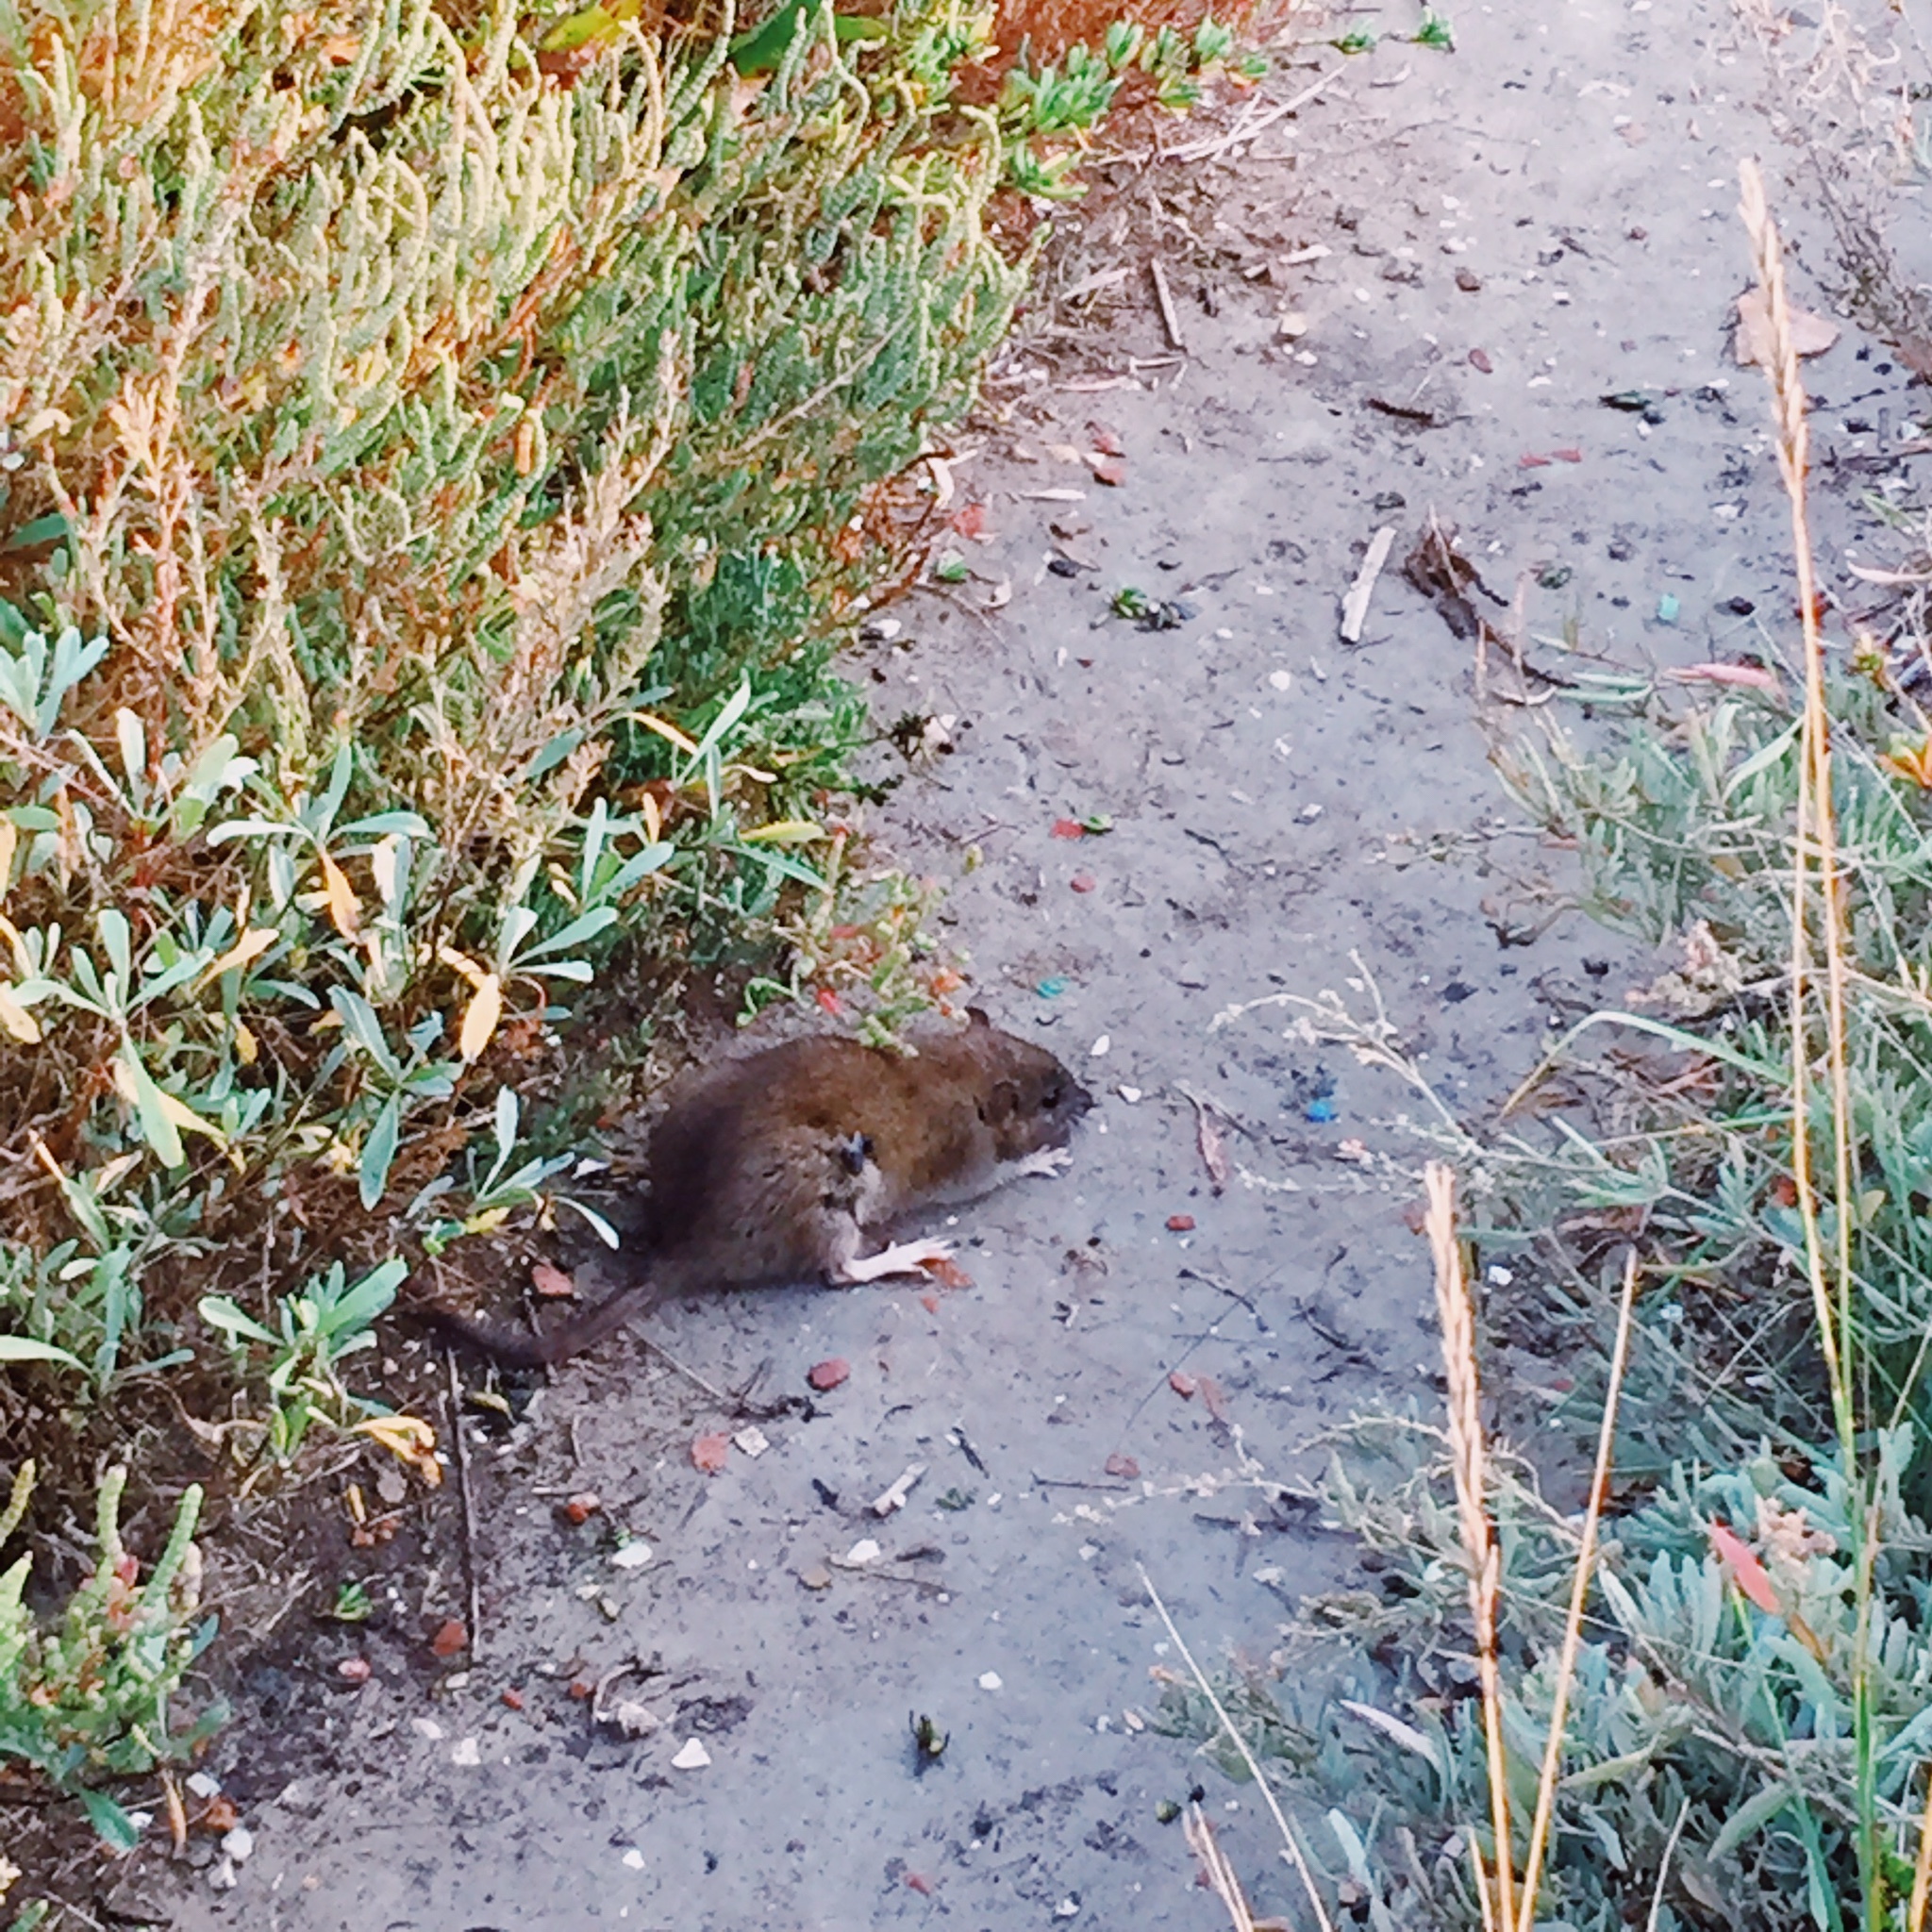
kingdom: Animalia
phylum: Chordata
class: Mammalia
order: Rodentia
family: Muridae
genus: Rattus
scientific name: Rattus norvegicus
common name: Brown rat
